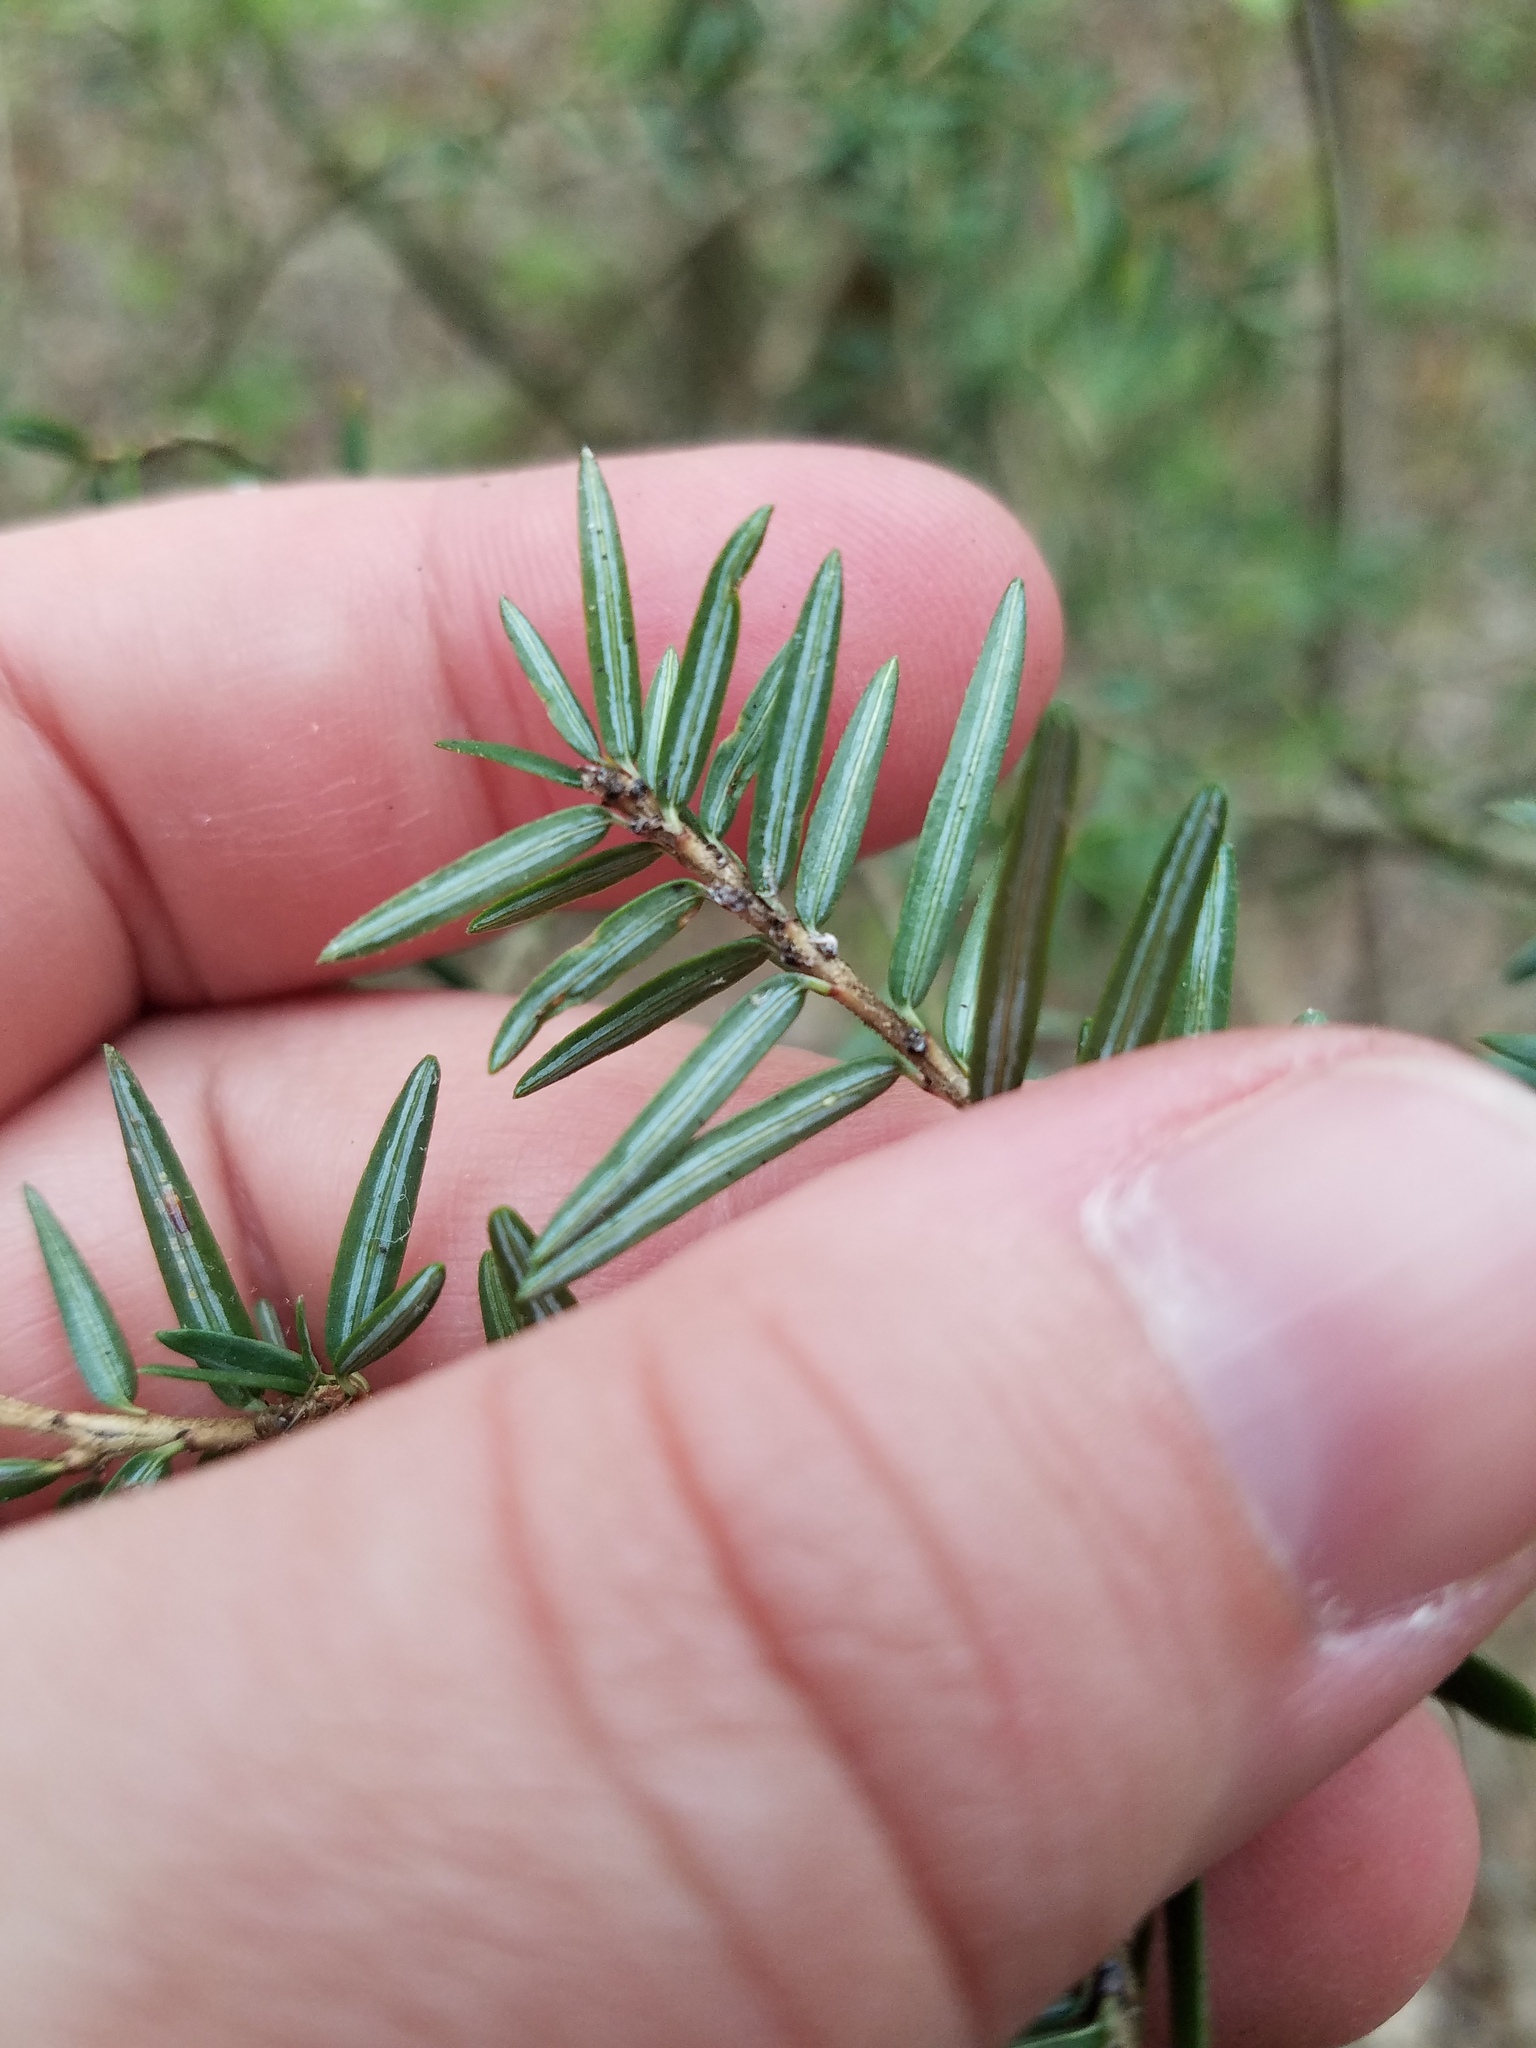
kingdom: Plantae
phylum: Tracheophyta
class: Pinopsida
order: Pinales
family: Pinaceae
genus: Tsuga
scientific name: Tsuga canadensis
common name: Eastern hemlock
